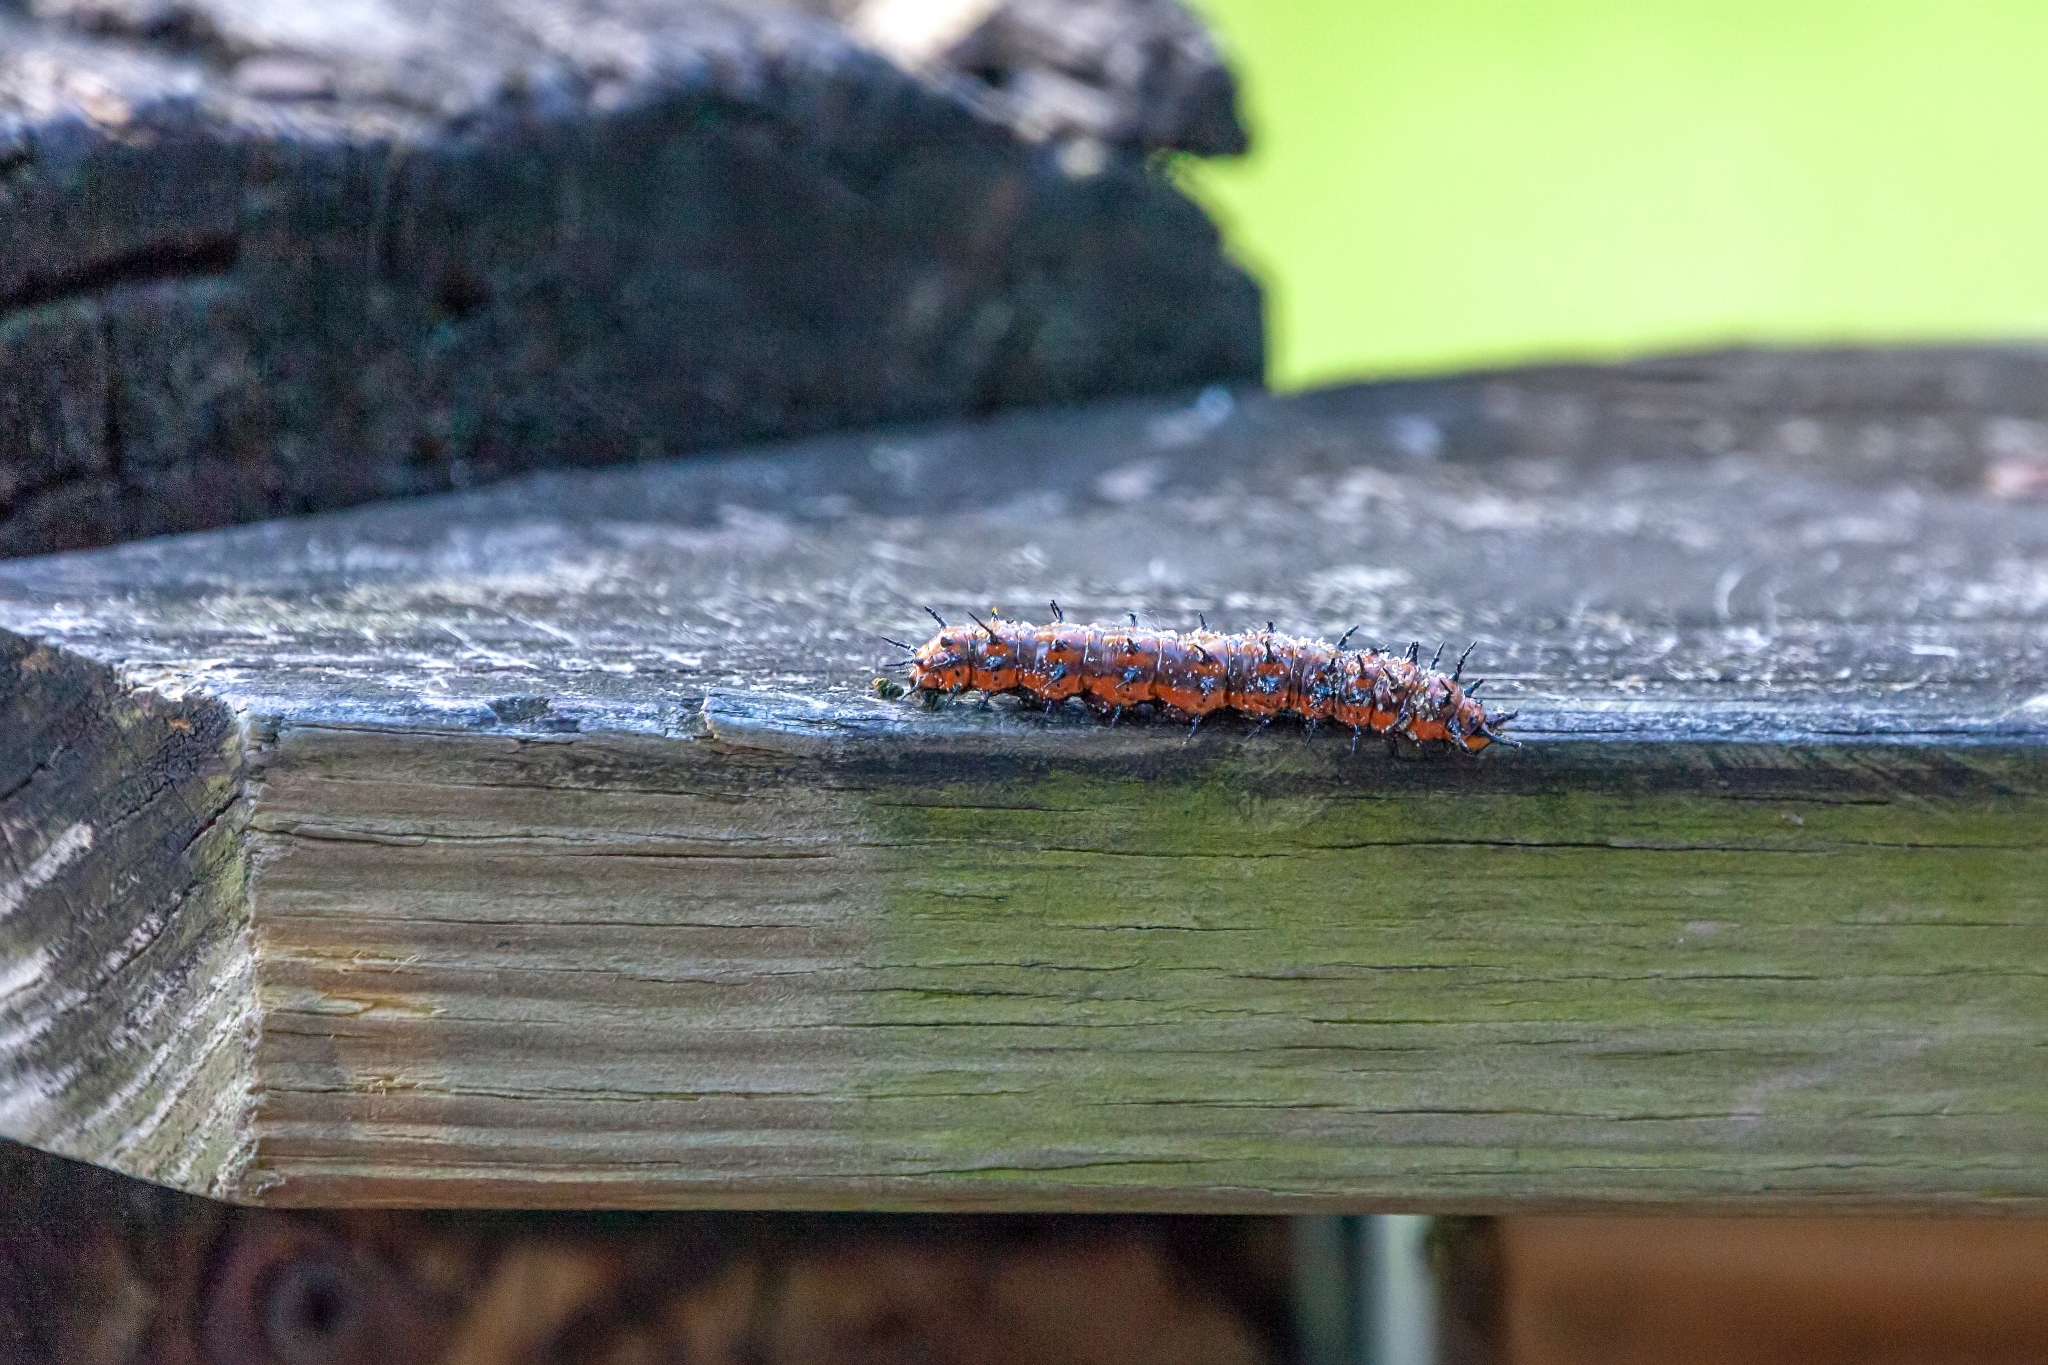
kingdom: Animalia
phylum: Arthropoda
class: Insecta
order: Lepidoptera
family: Nymphalidae
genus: Dione
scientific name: Dione vanillae
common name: Gulf fritillary
